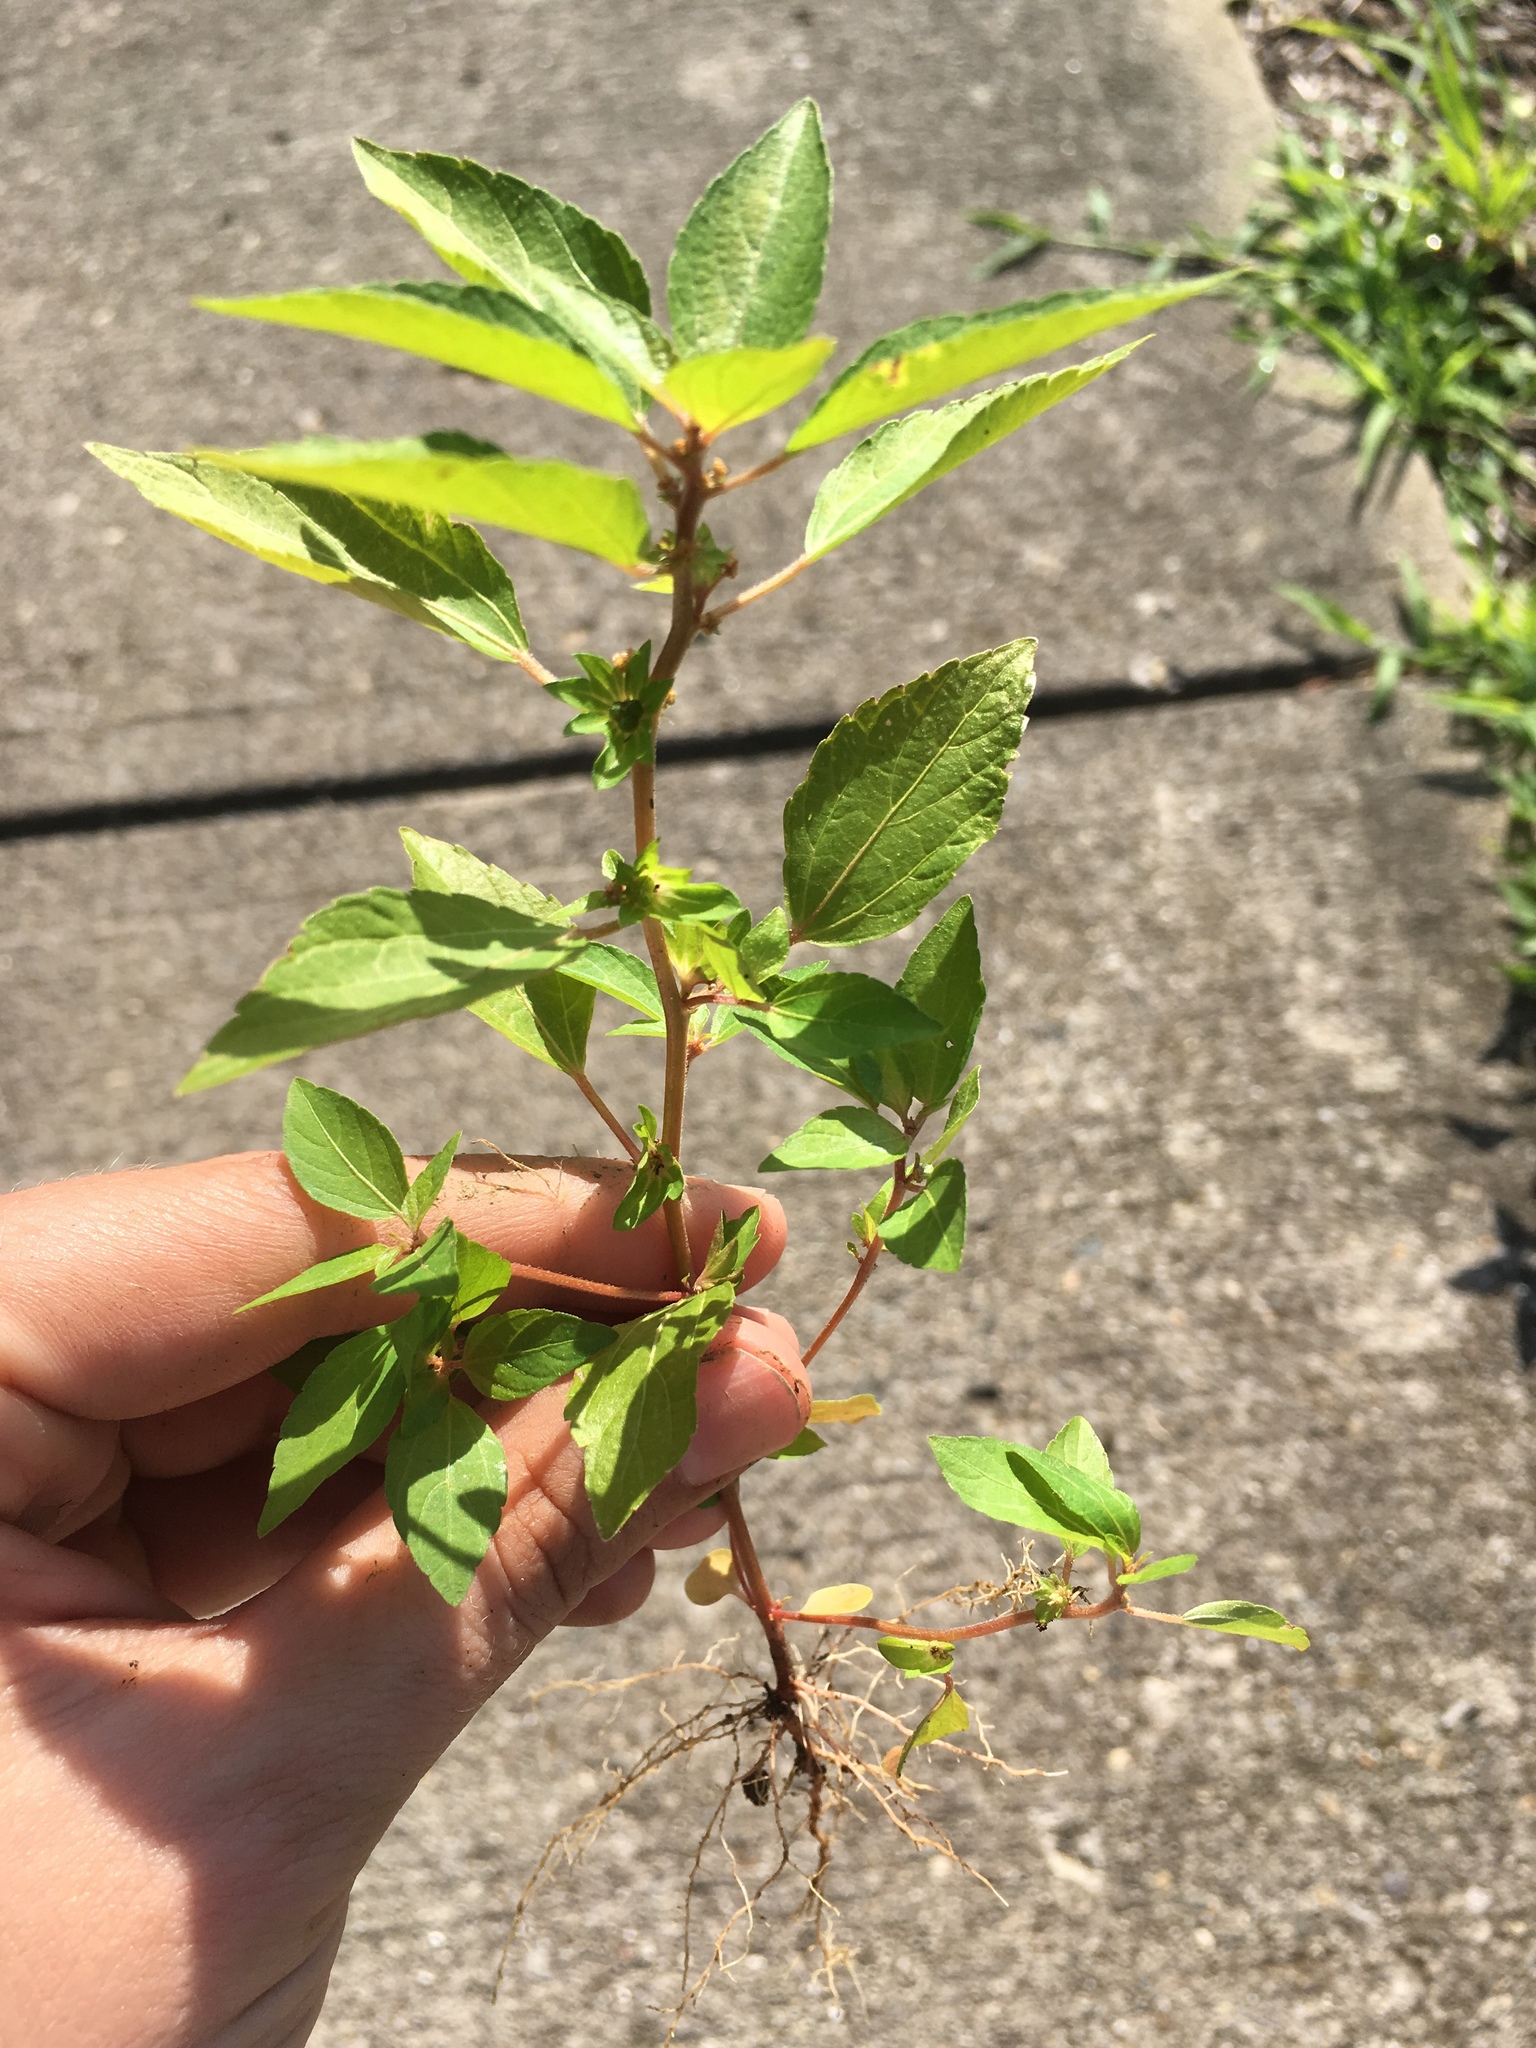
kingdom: Plantae
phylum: Tracheophyta
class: Magnoliopsida
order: Malpighiales
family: Euphorbiaceae
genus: Acalypha
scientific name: Acalypha rhomboidea
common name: Rhombic copperleaf
